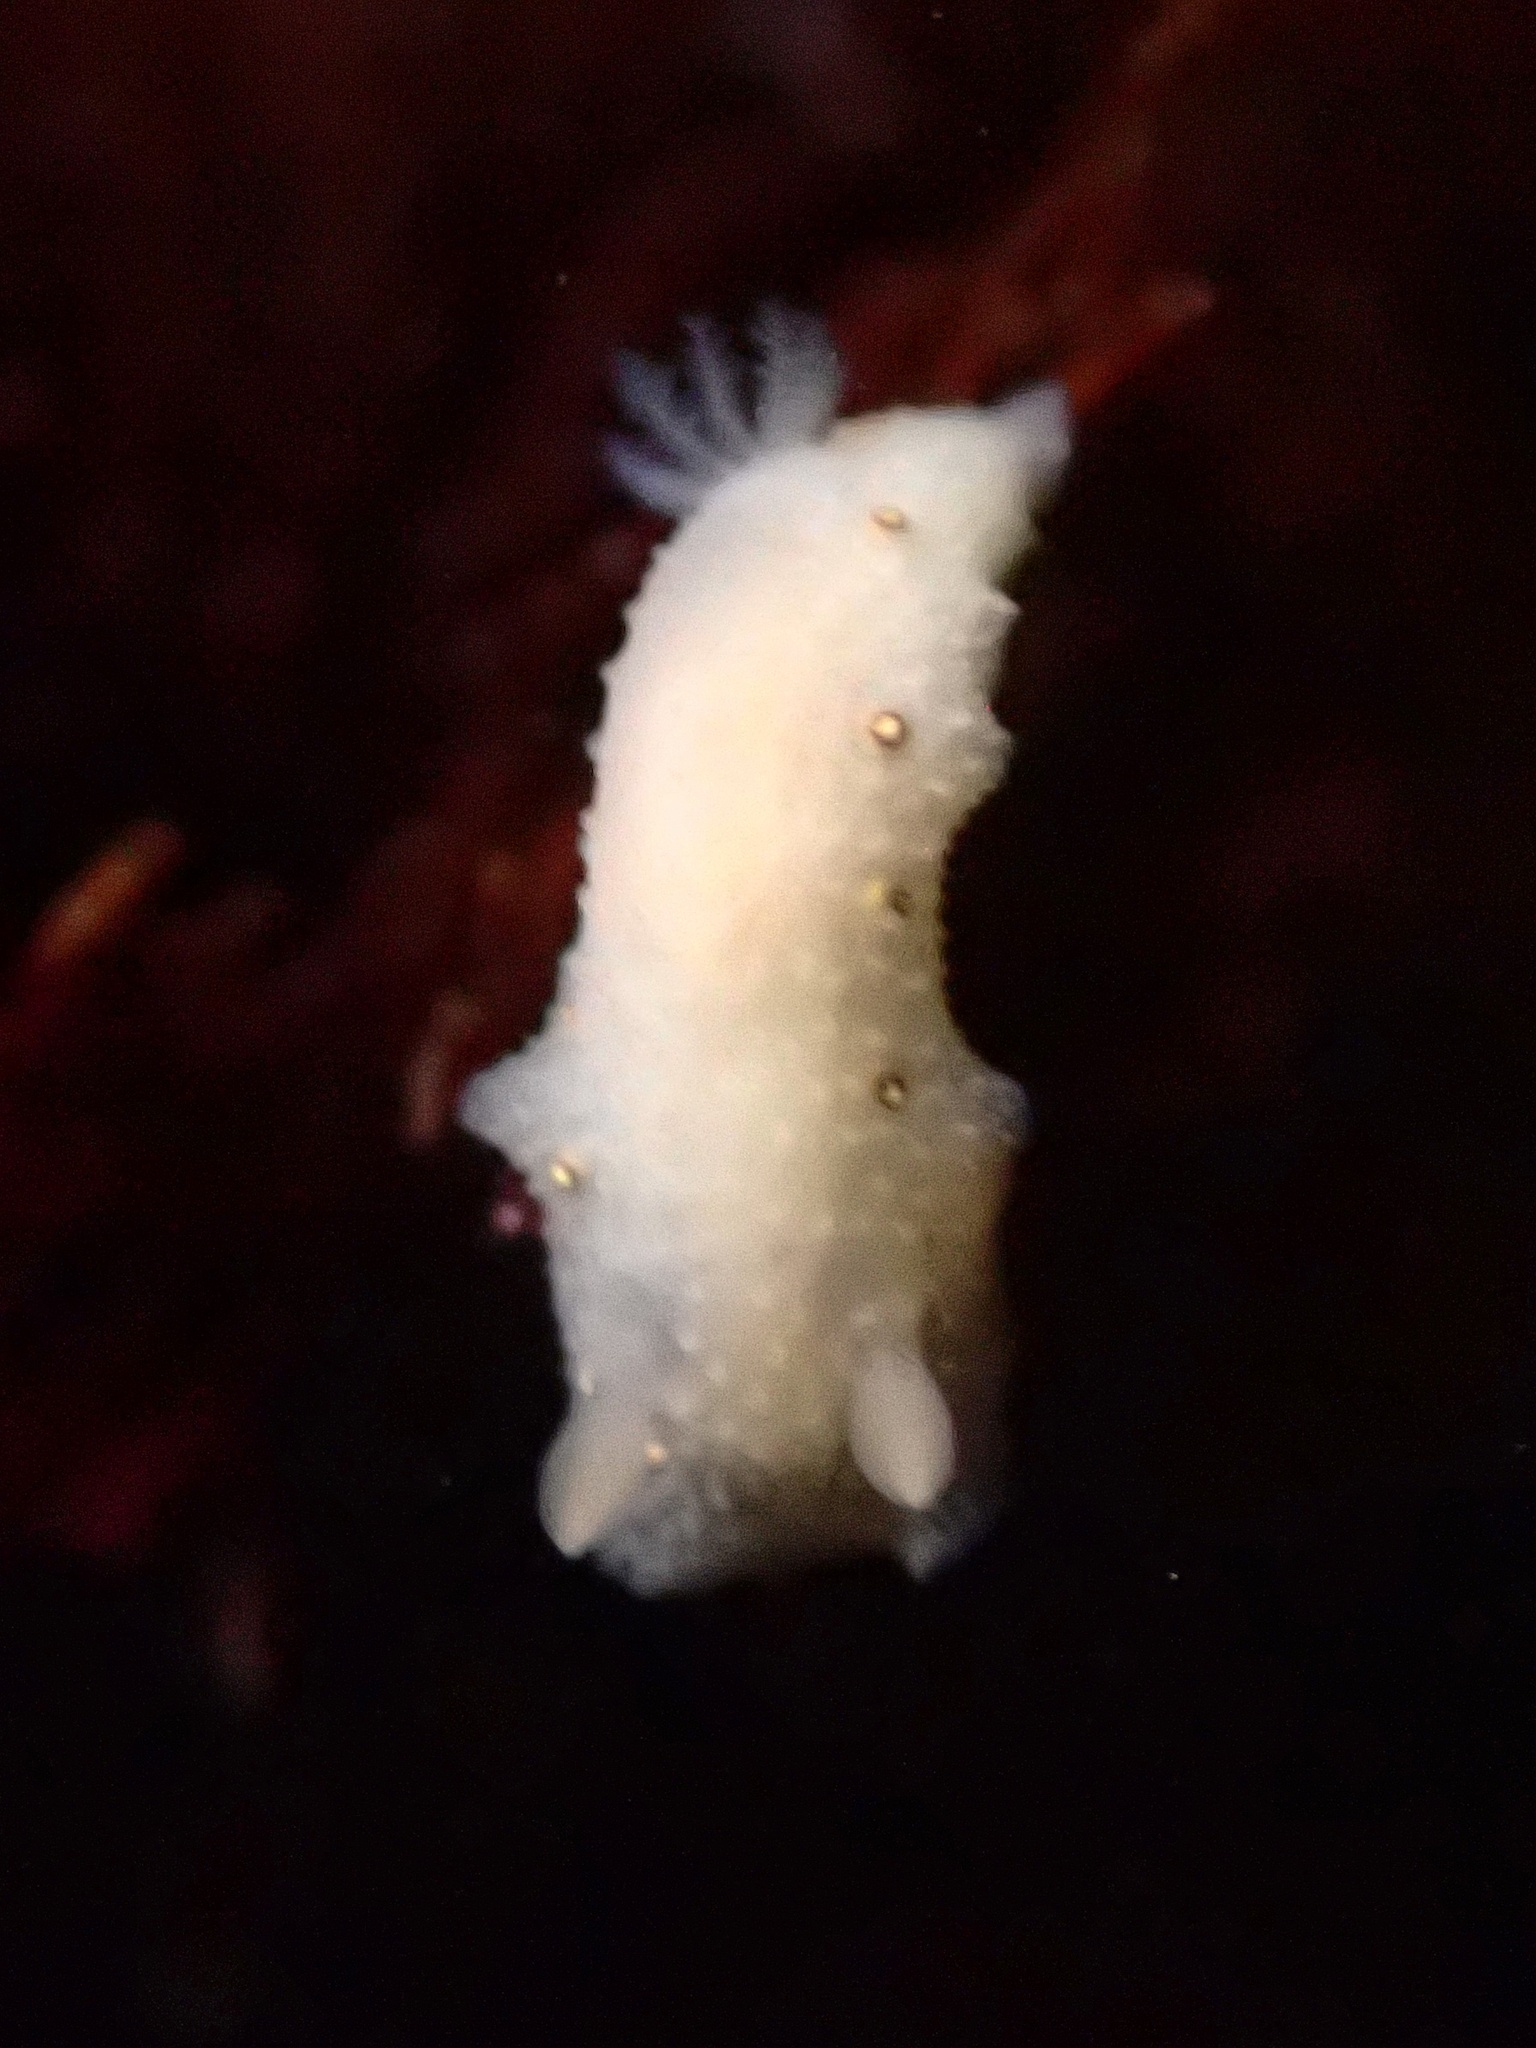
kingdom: Animalia
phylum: Mollusca
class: Gastropoda
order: Nudibranchia
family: Cadlinidae
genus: Cadlina
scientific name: Cadlina sparsa
